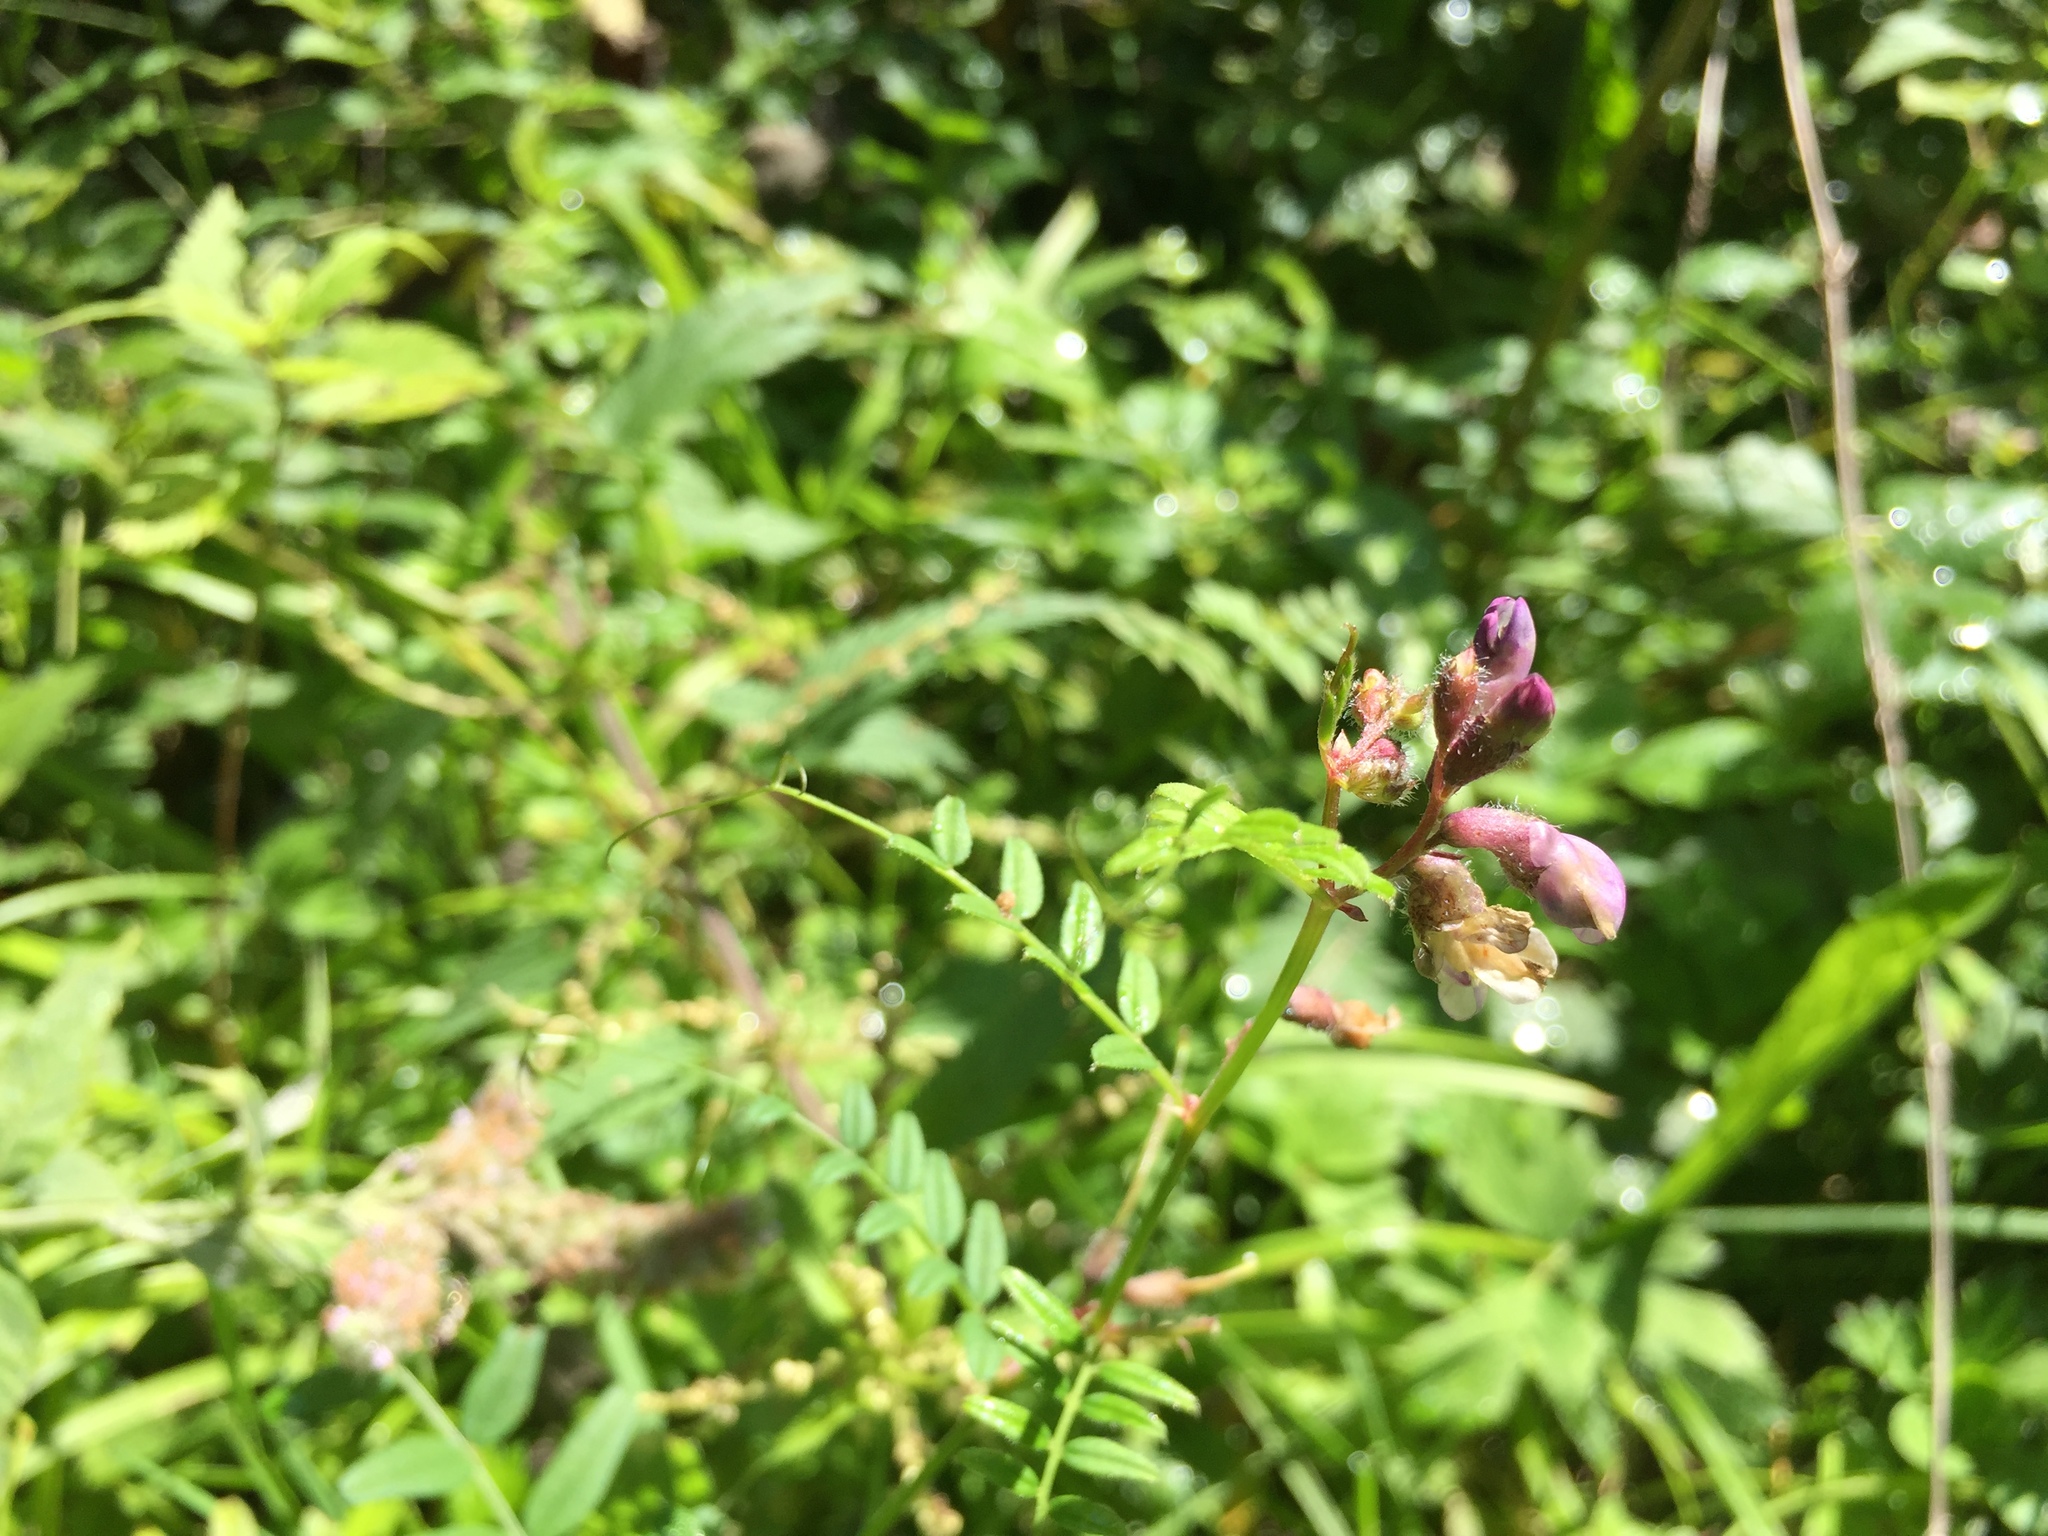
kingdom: Plantae
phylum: Tracheophyta
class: Magnoliopsida
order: Fabales
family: Fabaceae
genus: Vicia
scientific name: Vicia sepium
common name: Bush vetch
